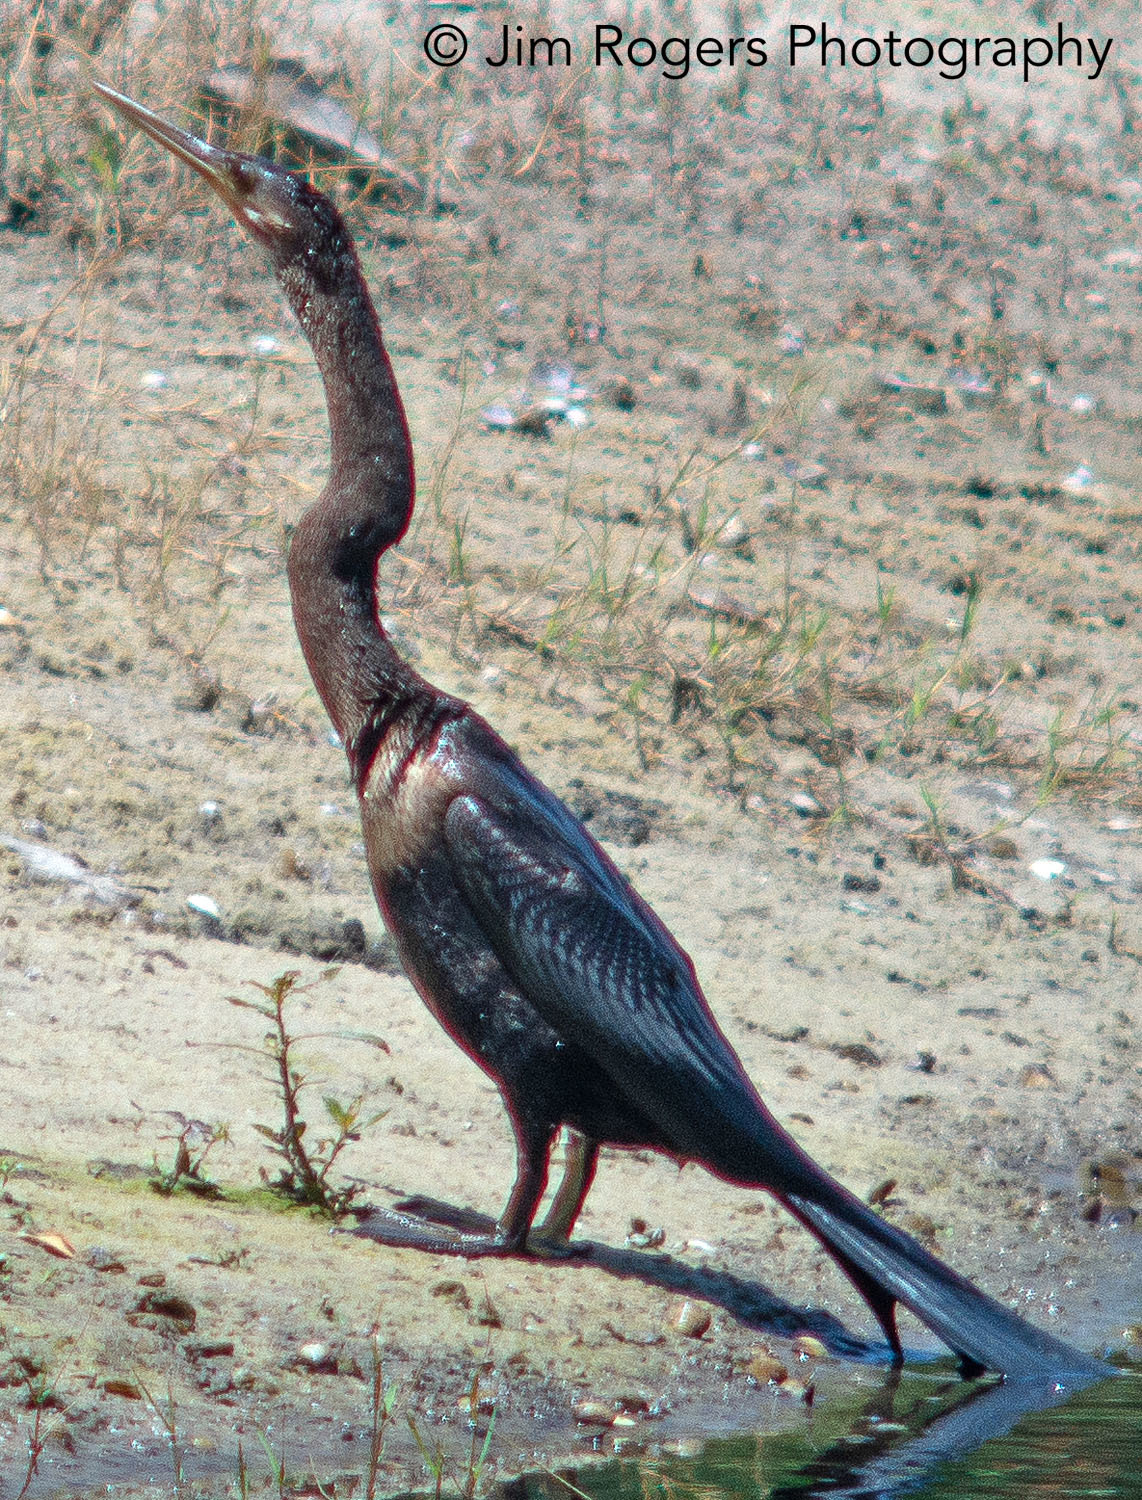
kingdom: Animalia
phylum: Chordata
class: Aves
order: Suliformes
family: Anhingidae
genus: Anhinga
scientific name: Anhinga anhinga
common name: Anhinga
